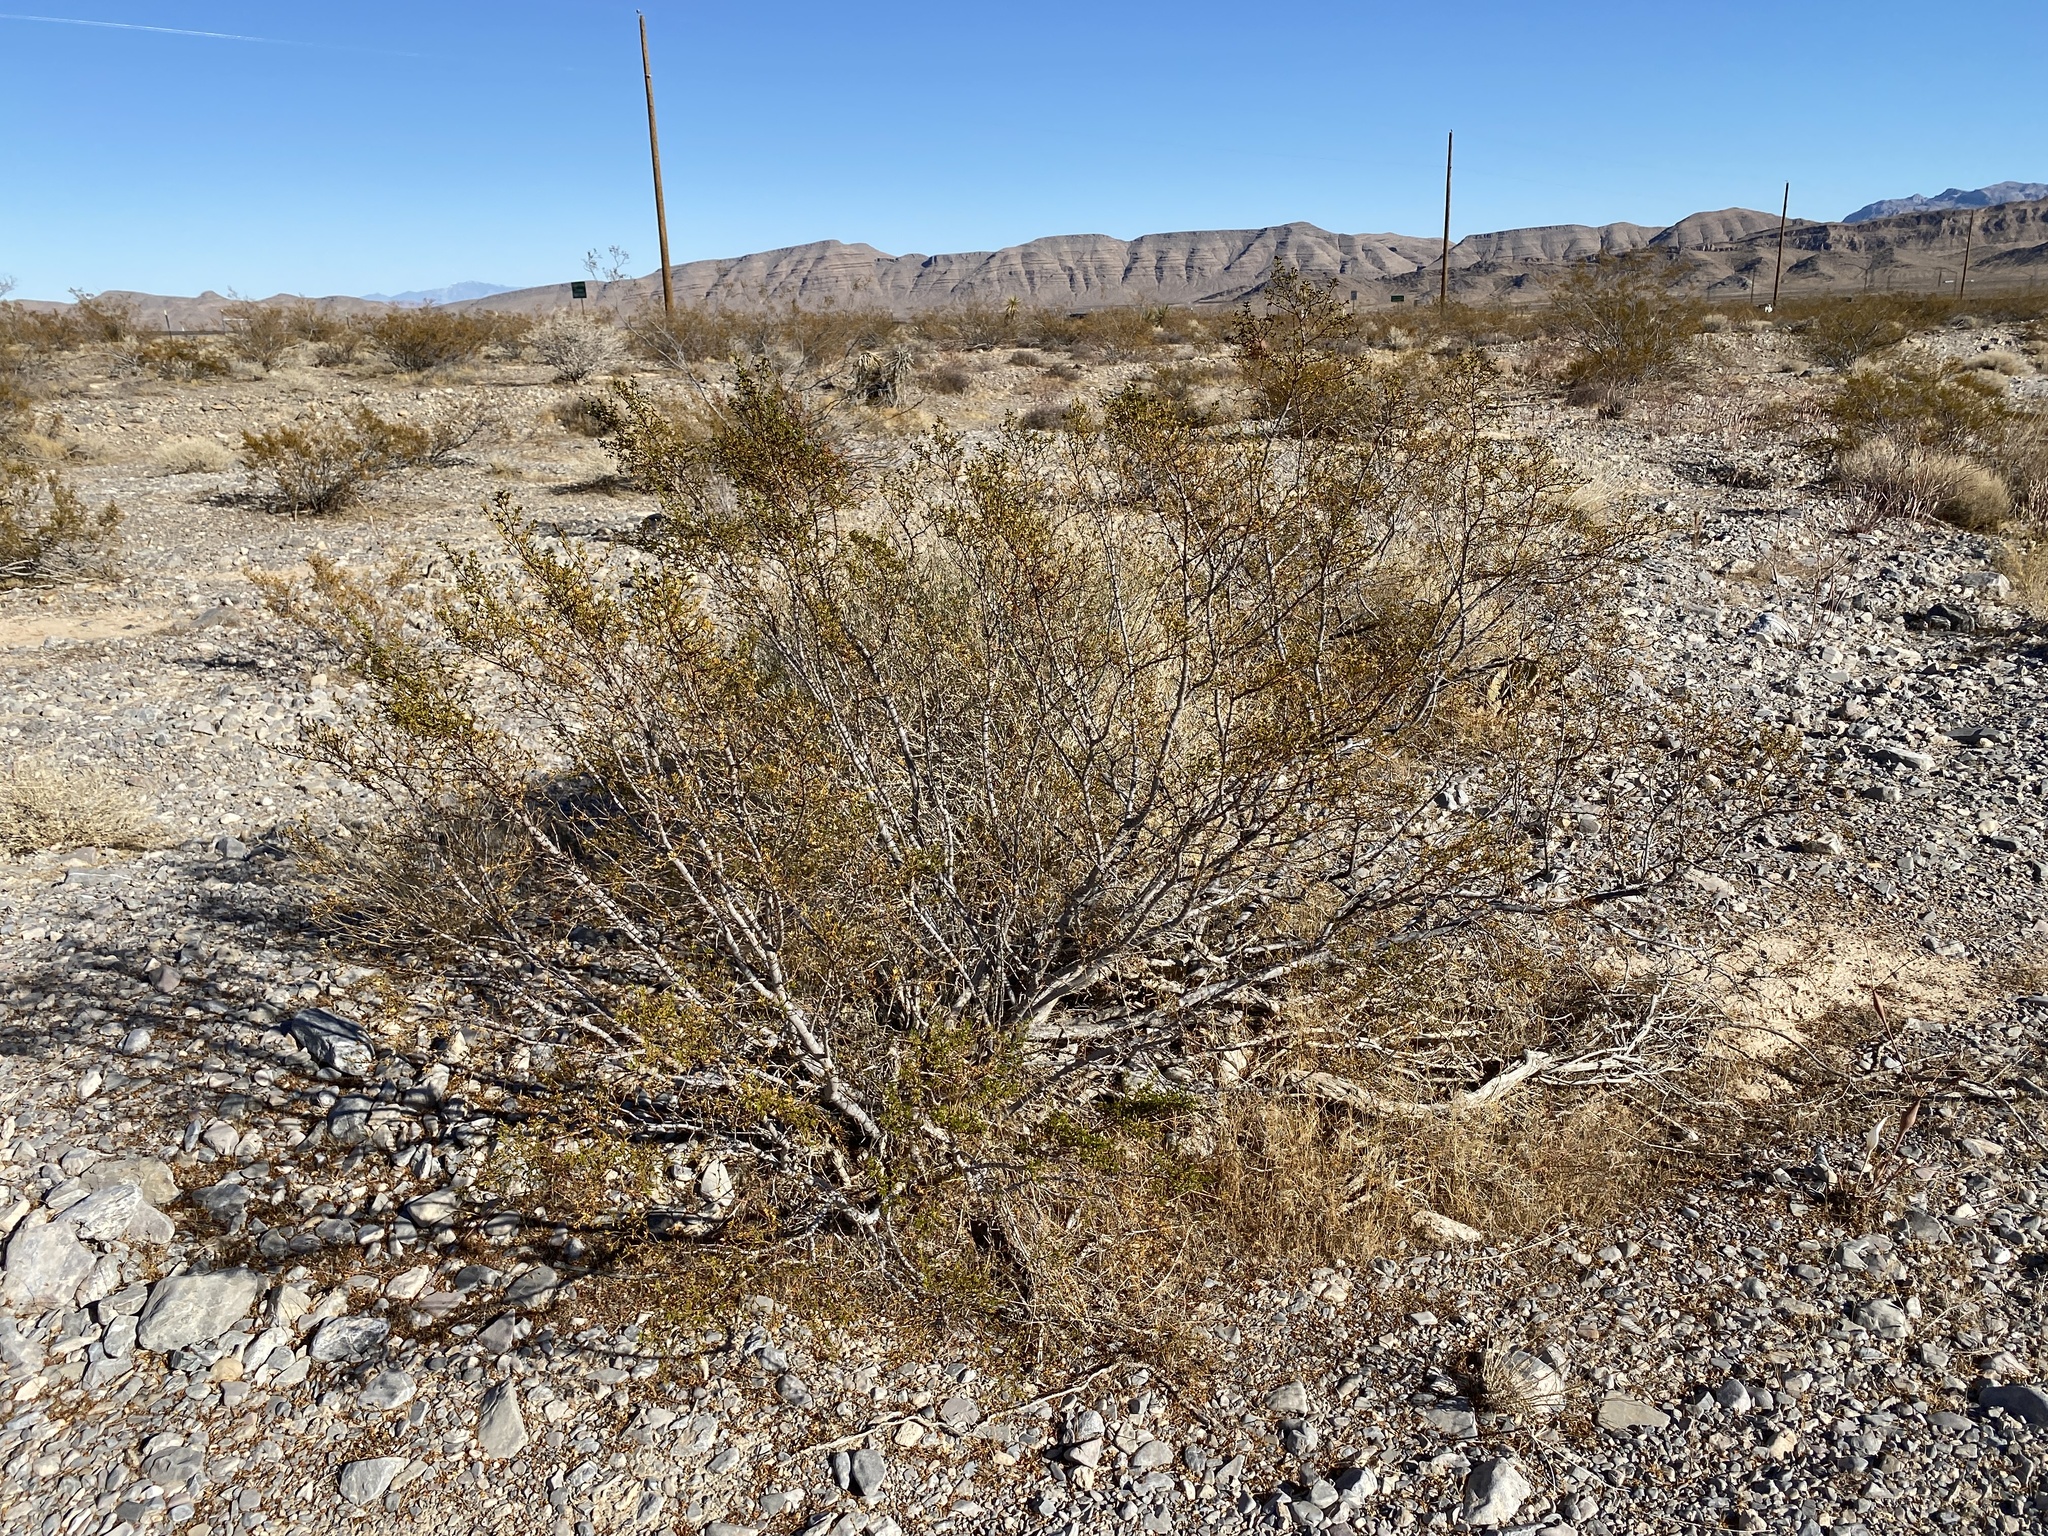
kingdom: Plantae
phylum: Tracheophyta
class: Magnoliopsida
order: Zygophyllales
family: Zygophyllaceae
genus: Larrea
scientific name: Larrea tridentata
